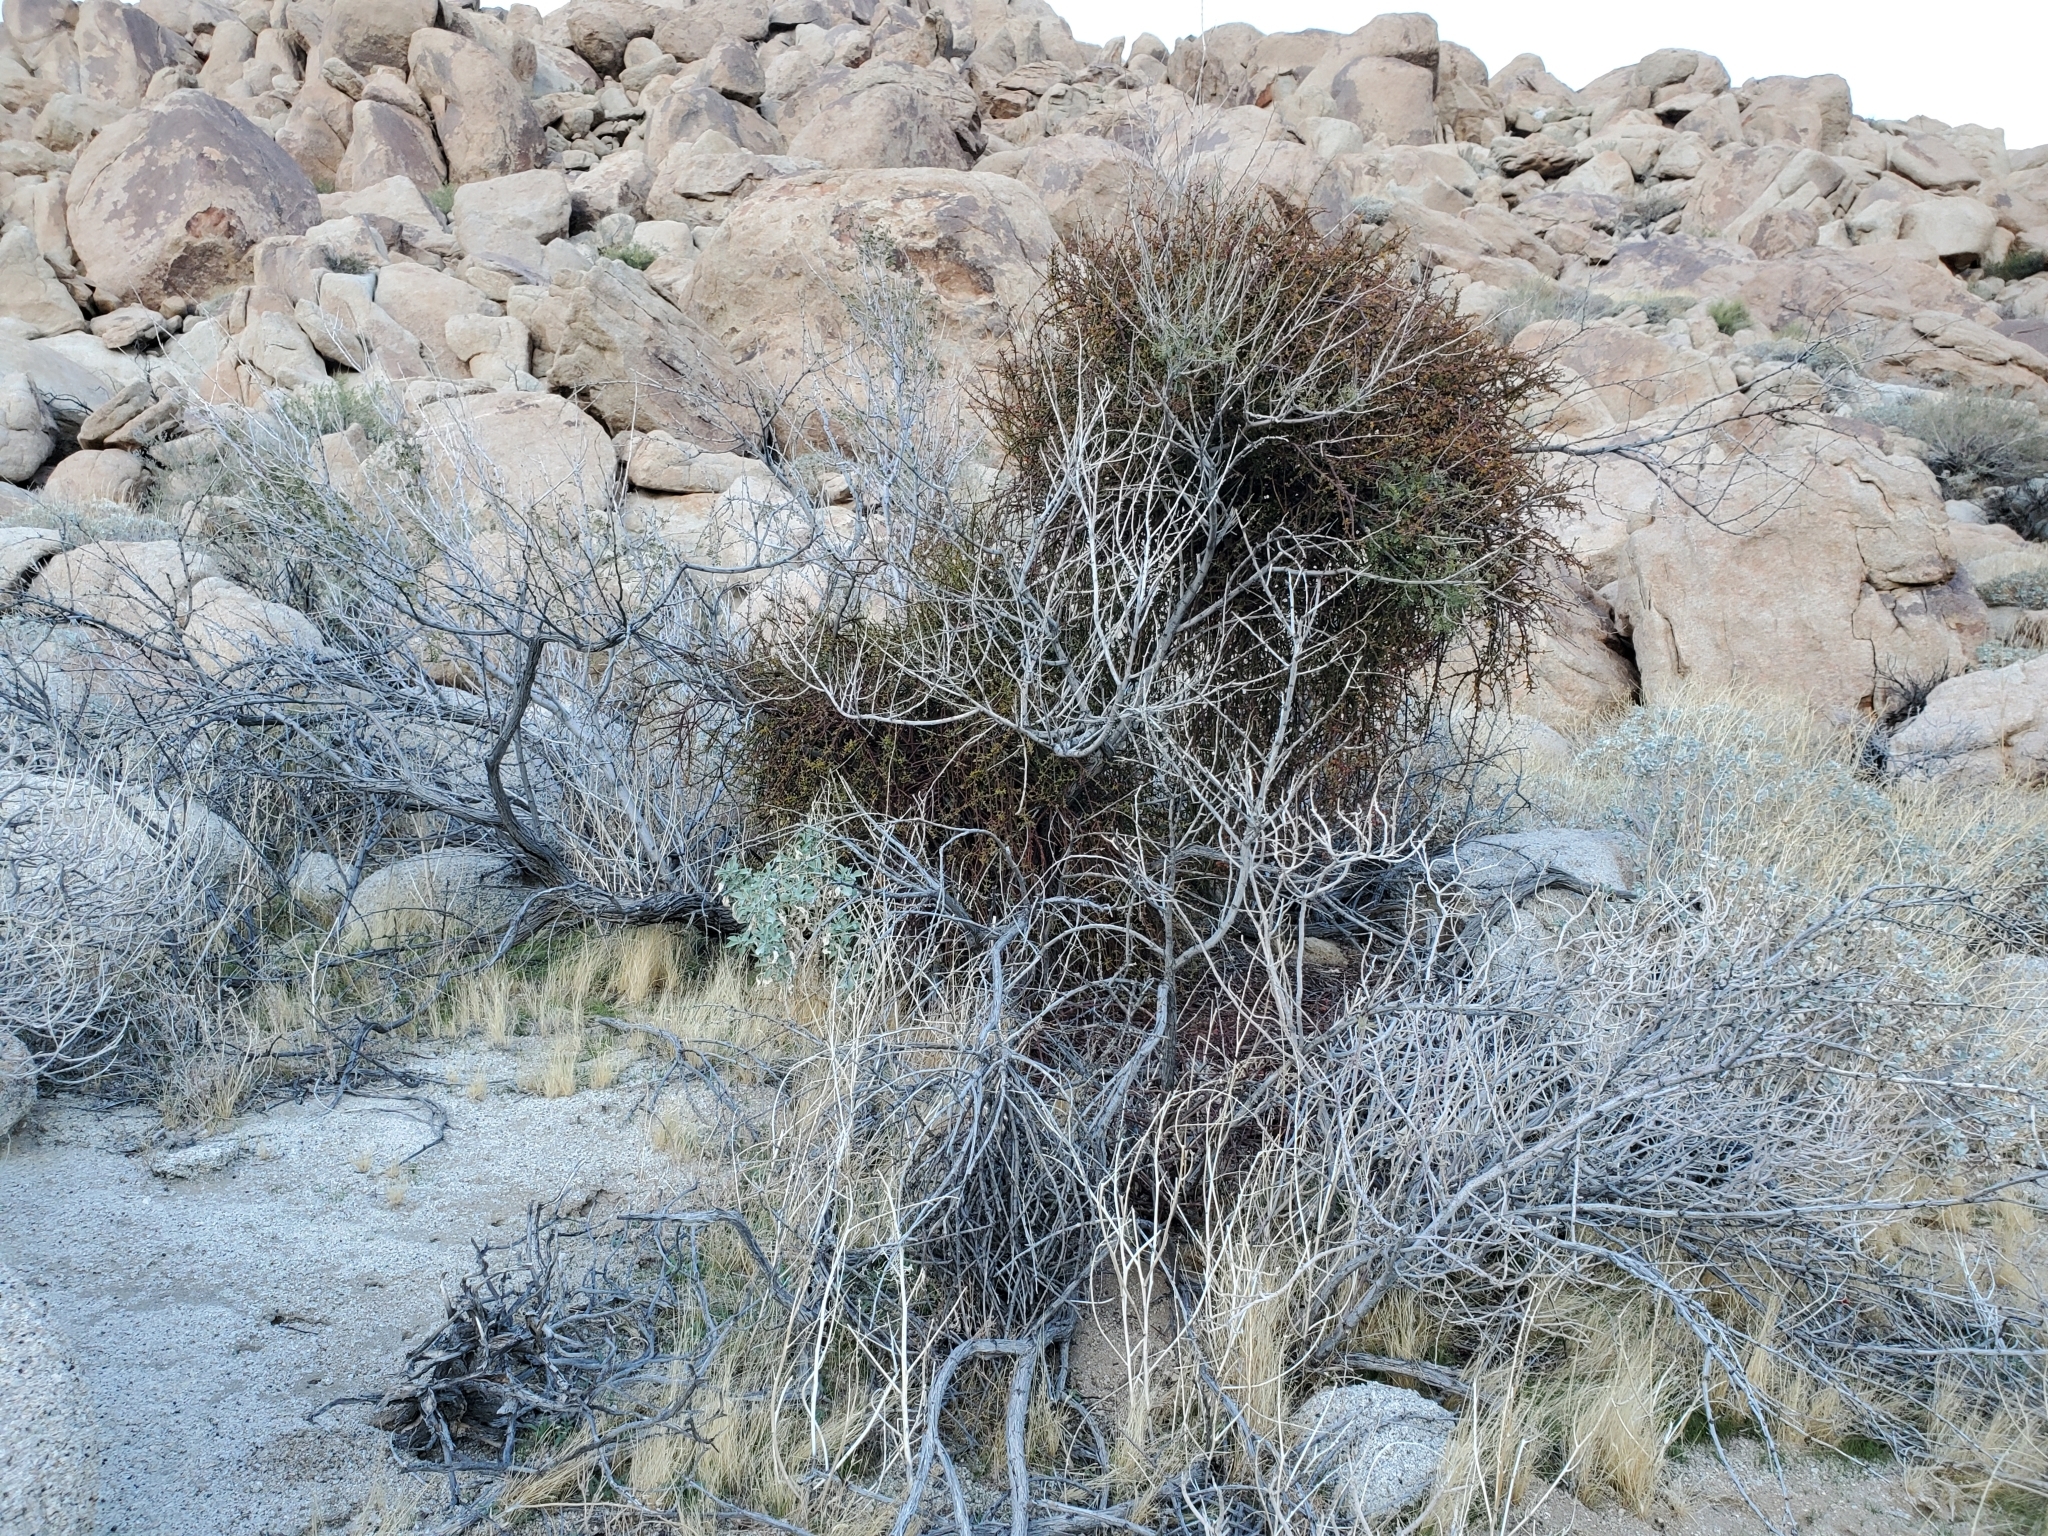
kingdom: Plantae
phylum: Tracheophyta
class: Magnoliopsida
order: Santalales
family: Viscaceae
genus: Phoradendron
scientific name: Phoradendron californicum
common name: Acacia mistletoe
